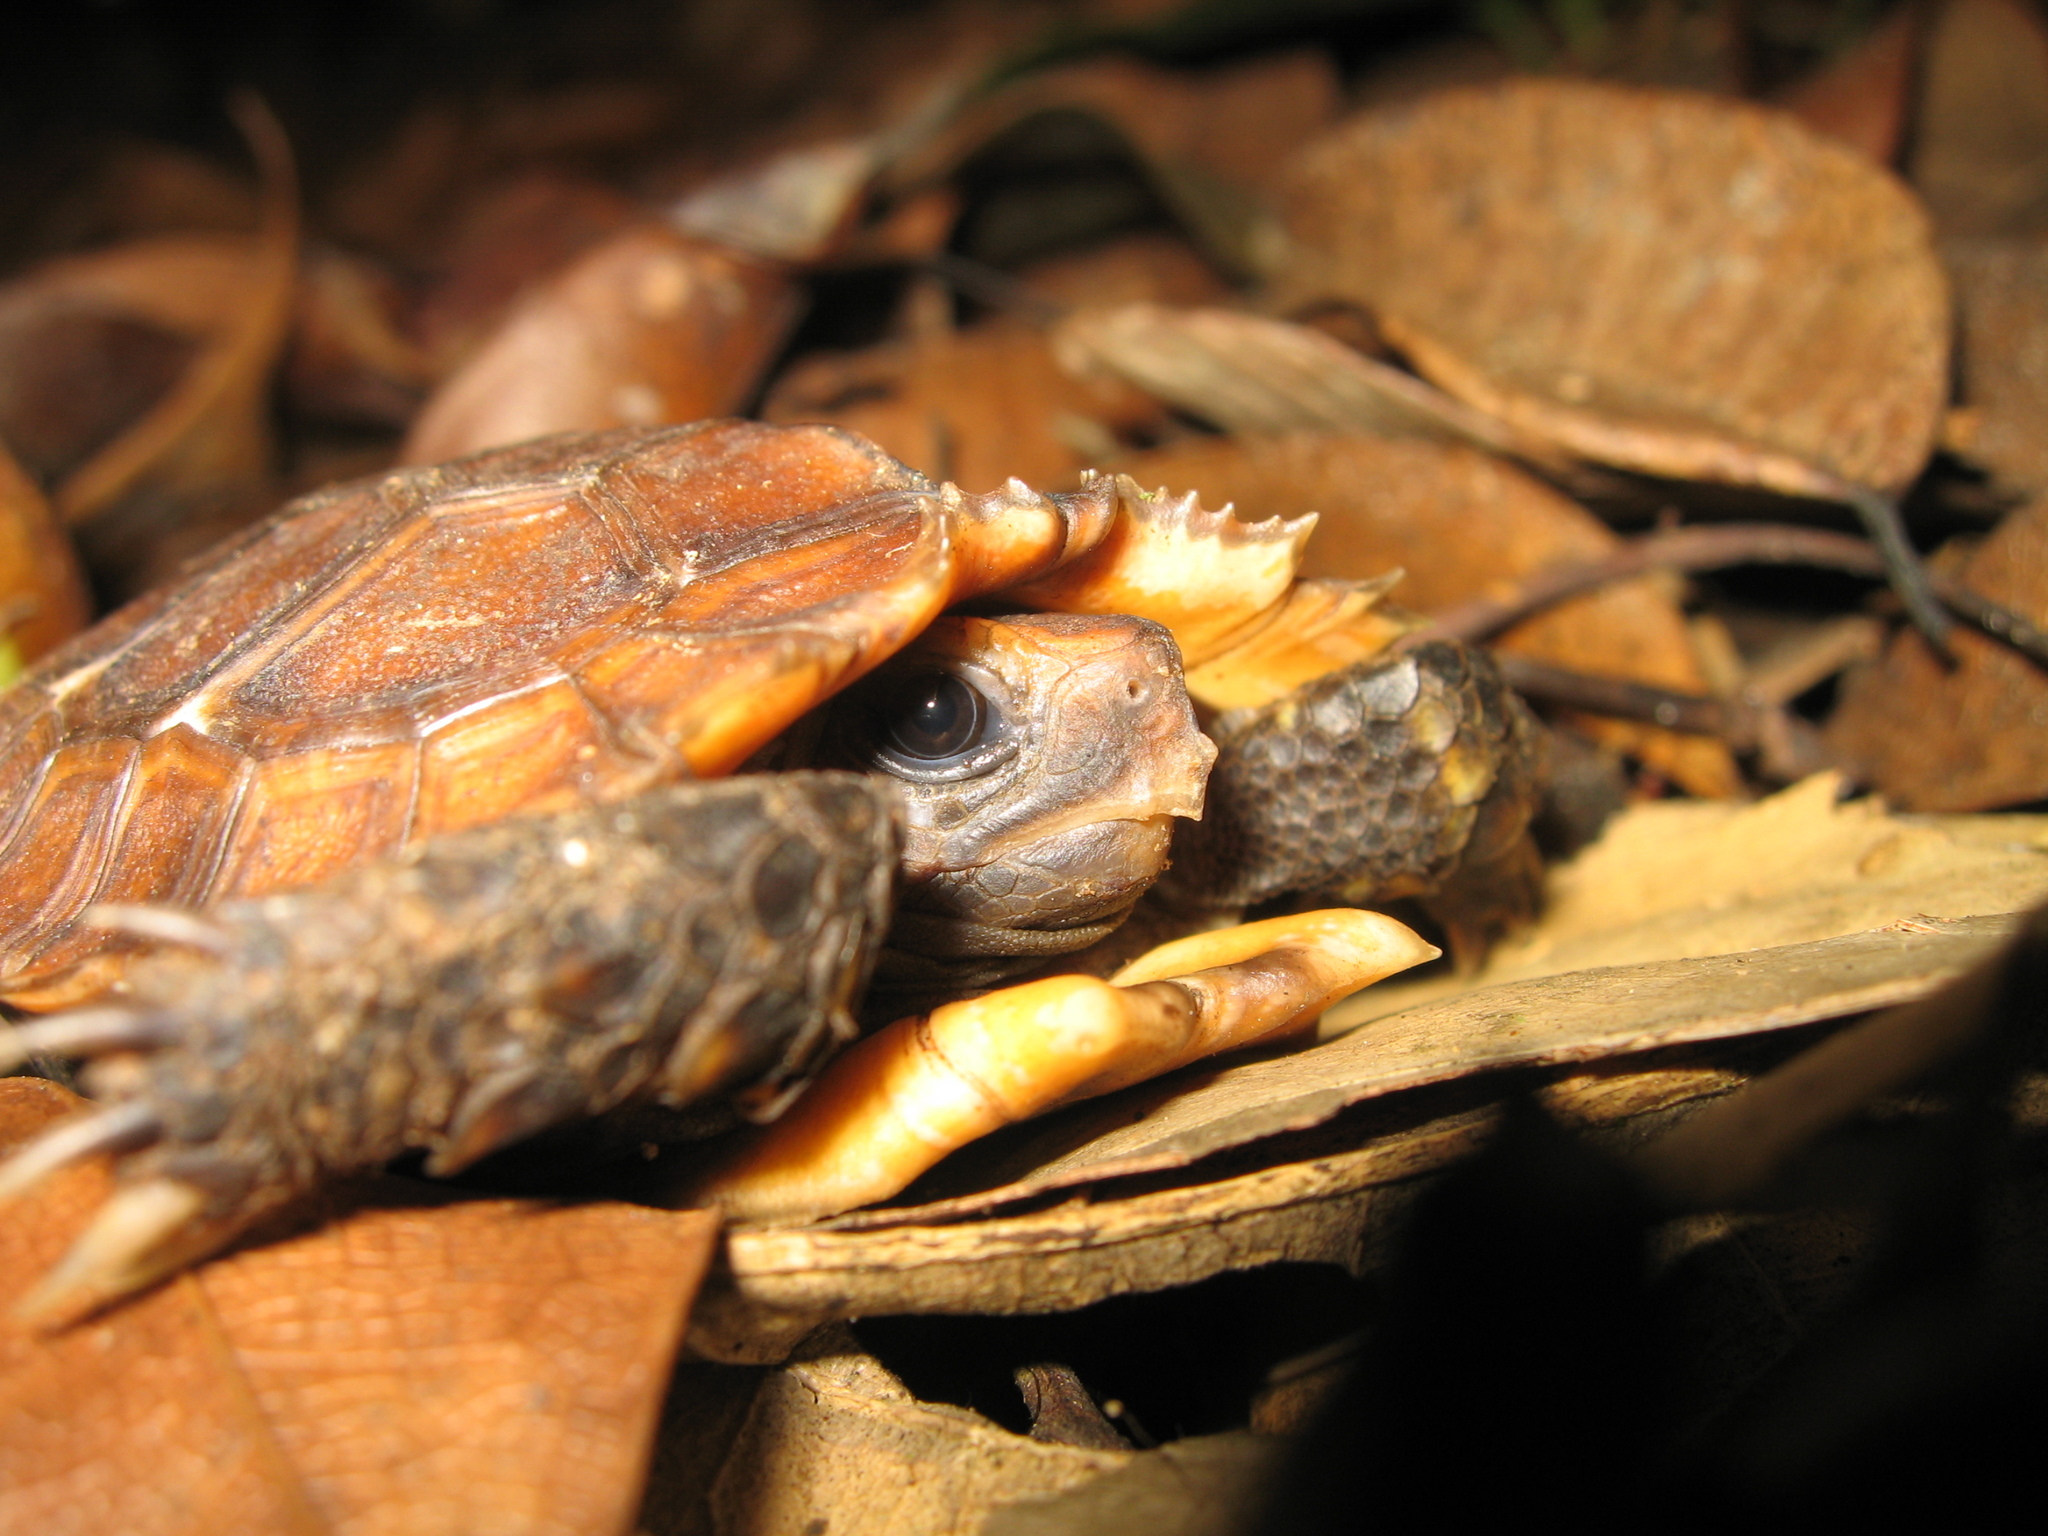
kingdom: Animalia
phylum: Chordata
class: Testudines
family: Testudinidae
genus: Kinixys
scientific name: Kinixys erosa
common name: Serrated hinge-back tortoise
